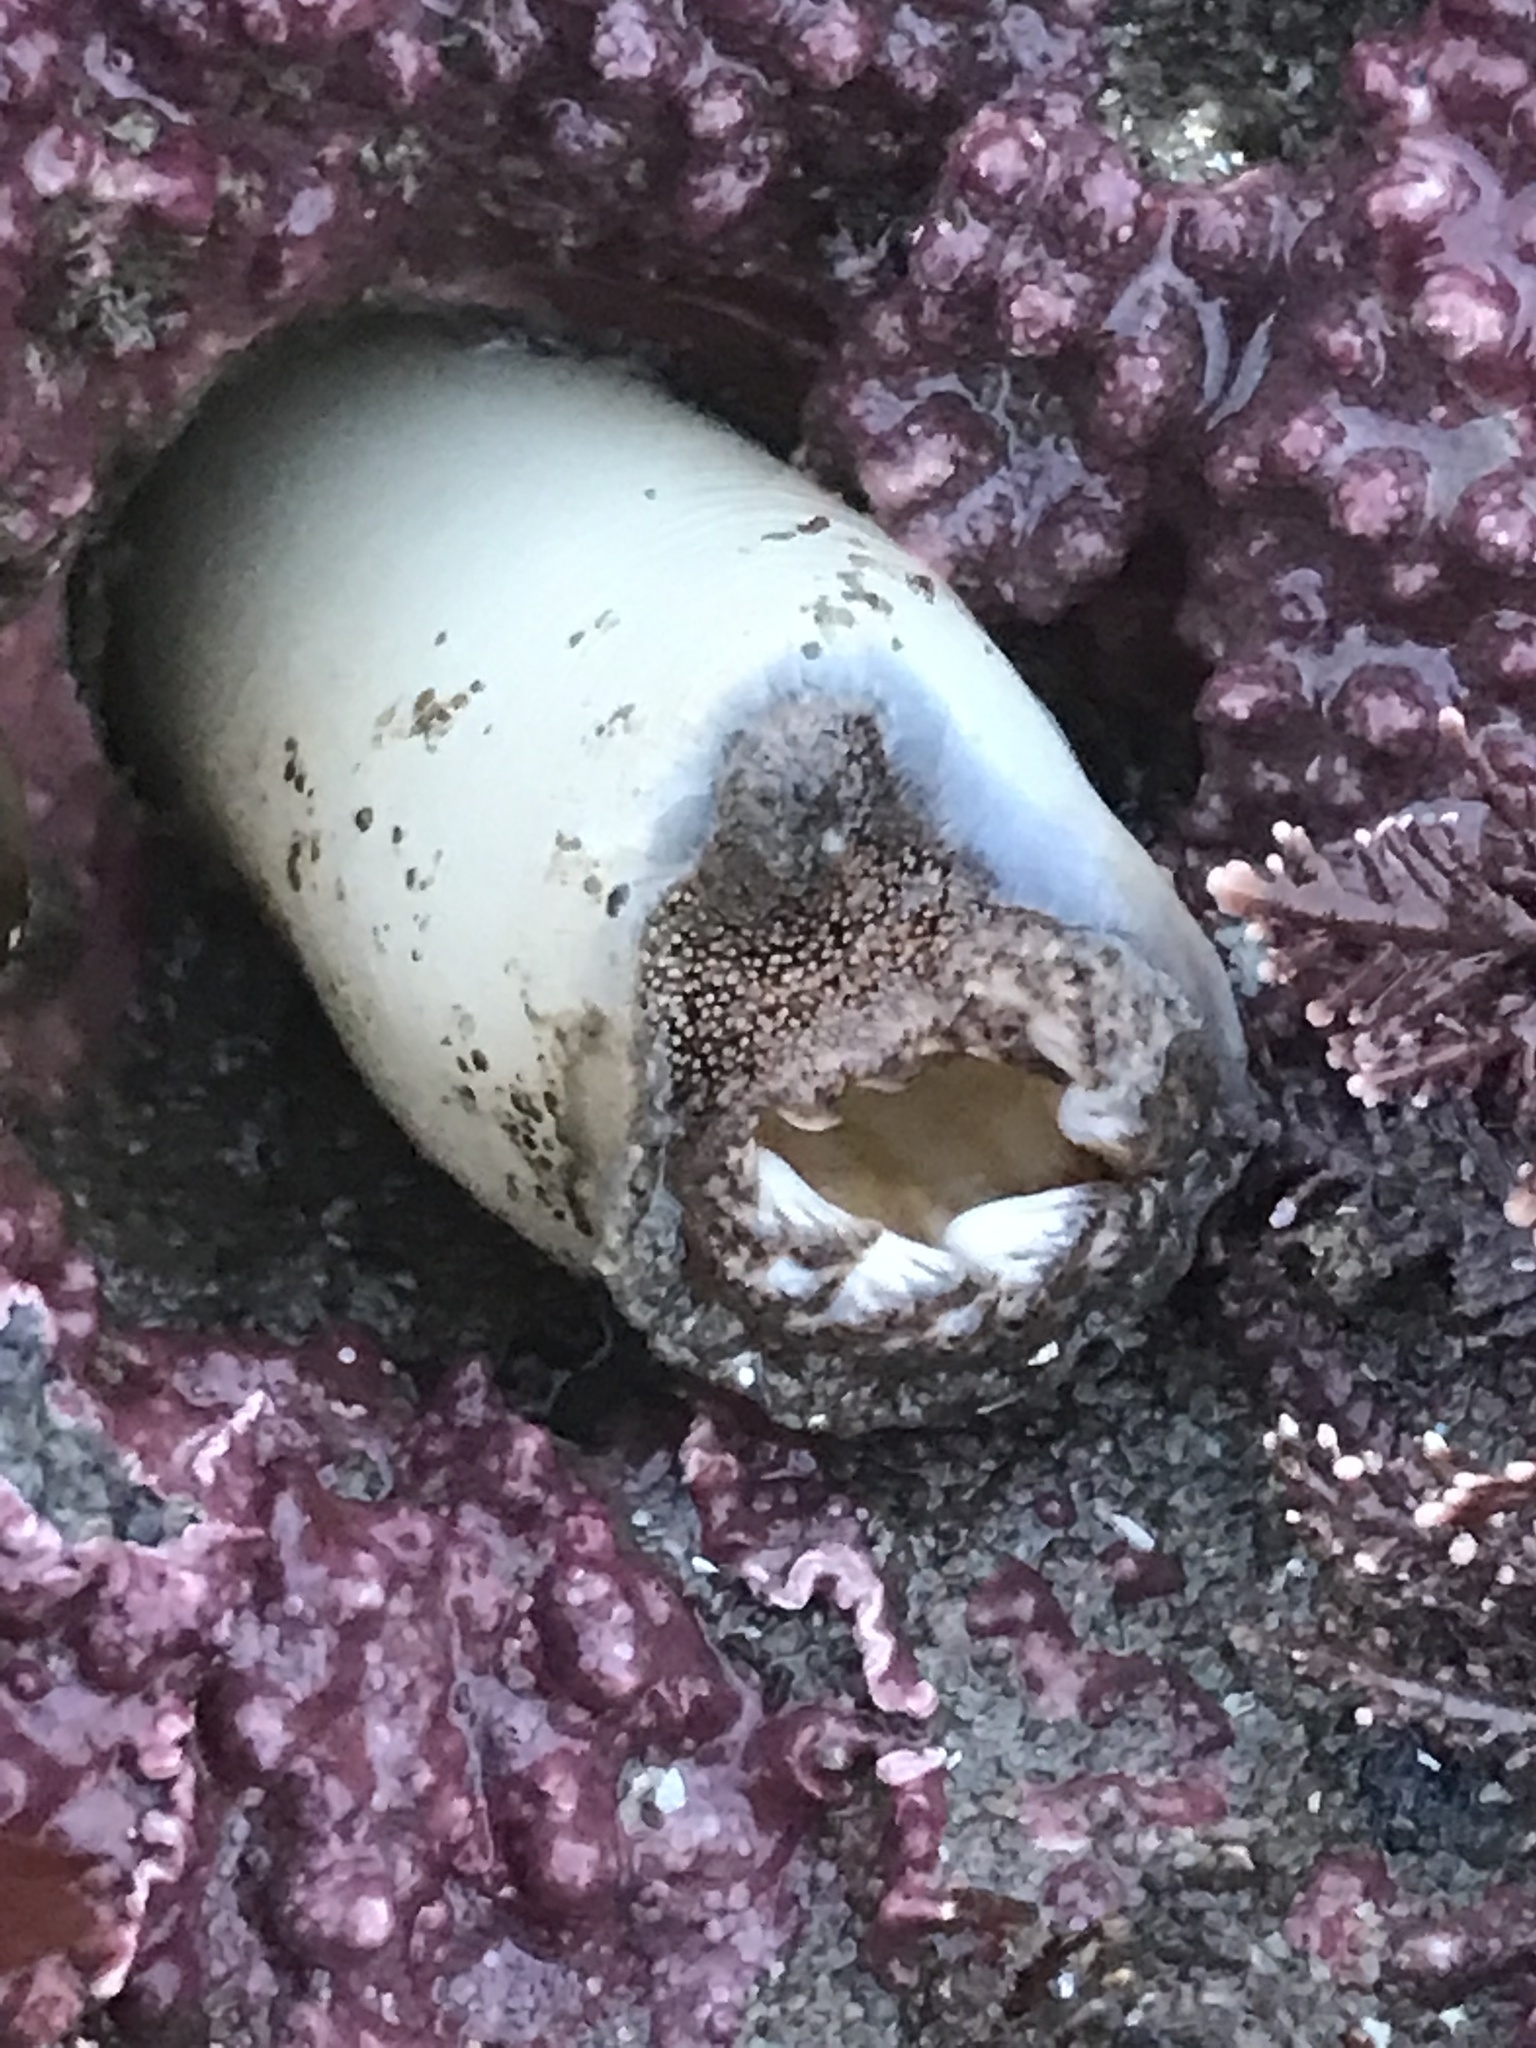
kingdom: Animalia
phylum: Mollusca
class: Bivalvia
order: Myida
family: Pholadidae
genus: Parapholas
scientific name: Parapholas californica
